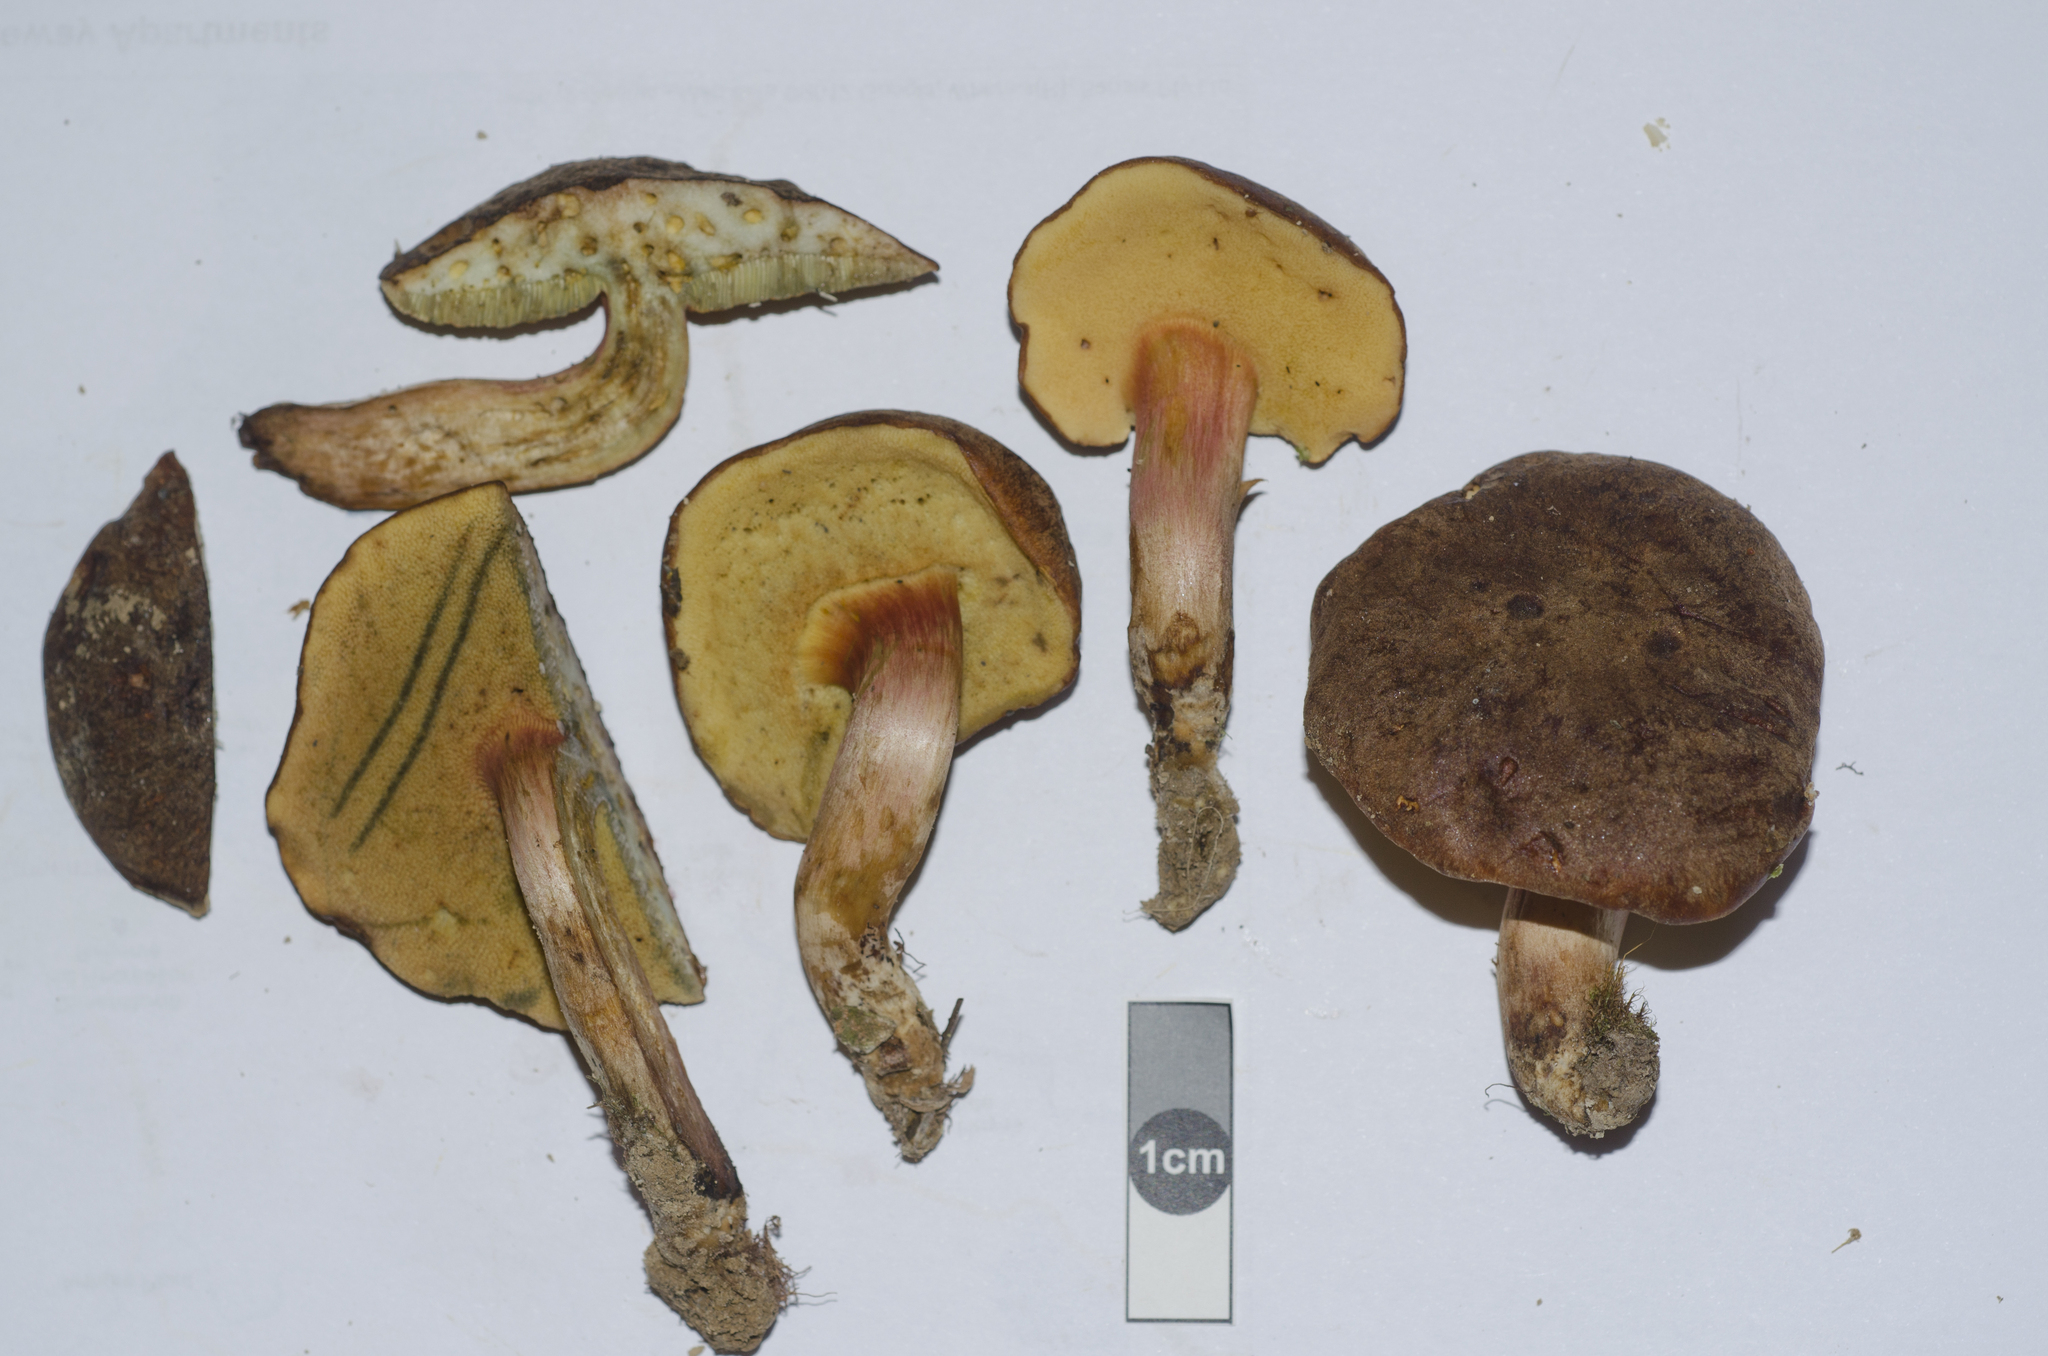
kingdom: Fungi
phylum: Basidiomycota
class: Agaricomycetes
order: Boletales
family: Boletaceae
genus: Xerocomus
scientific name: Xerocomus nothofagi
